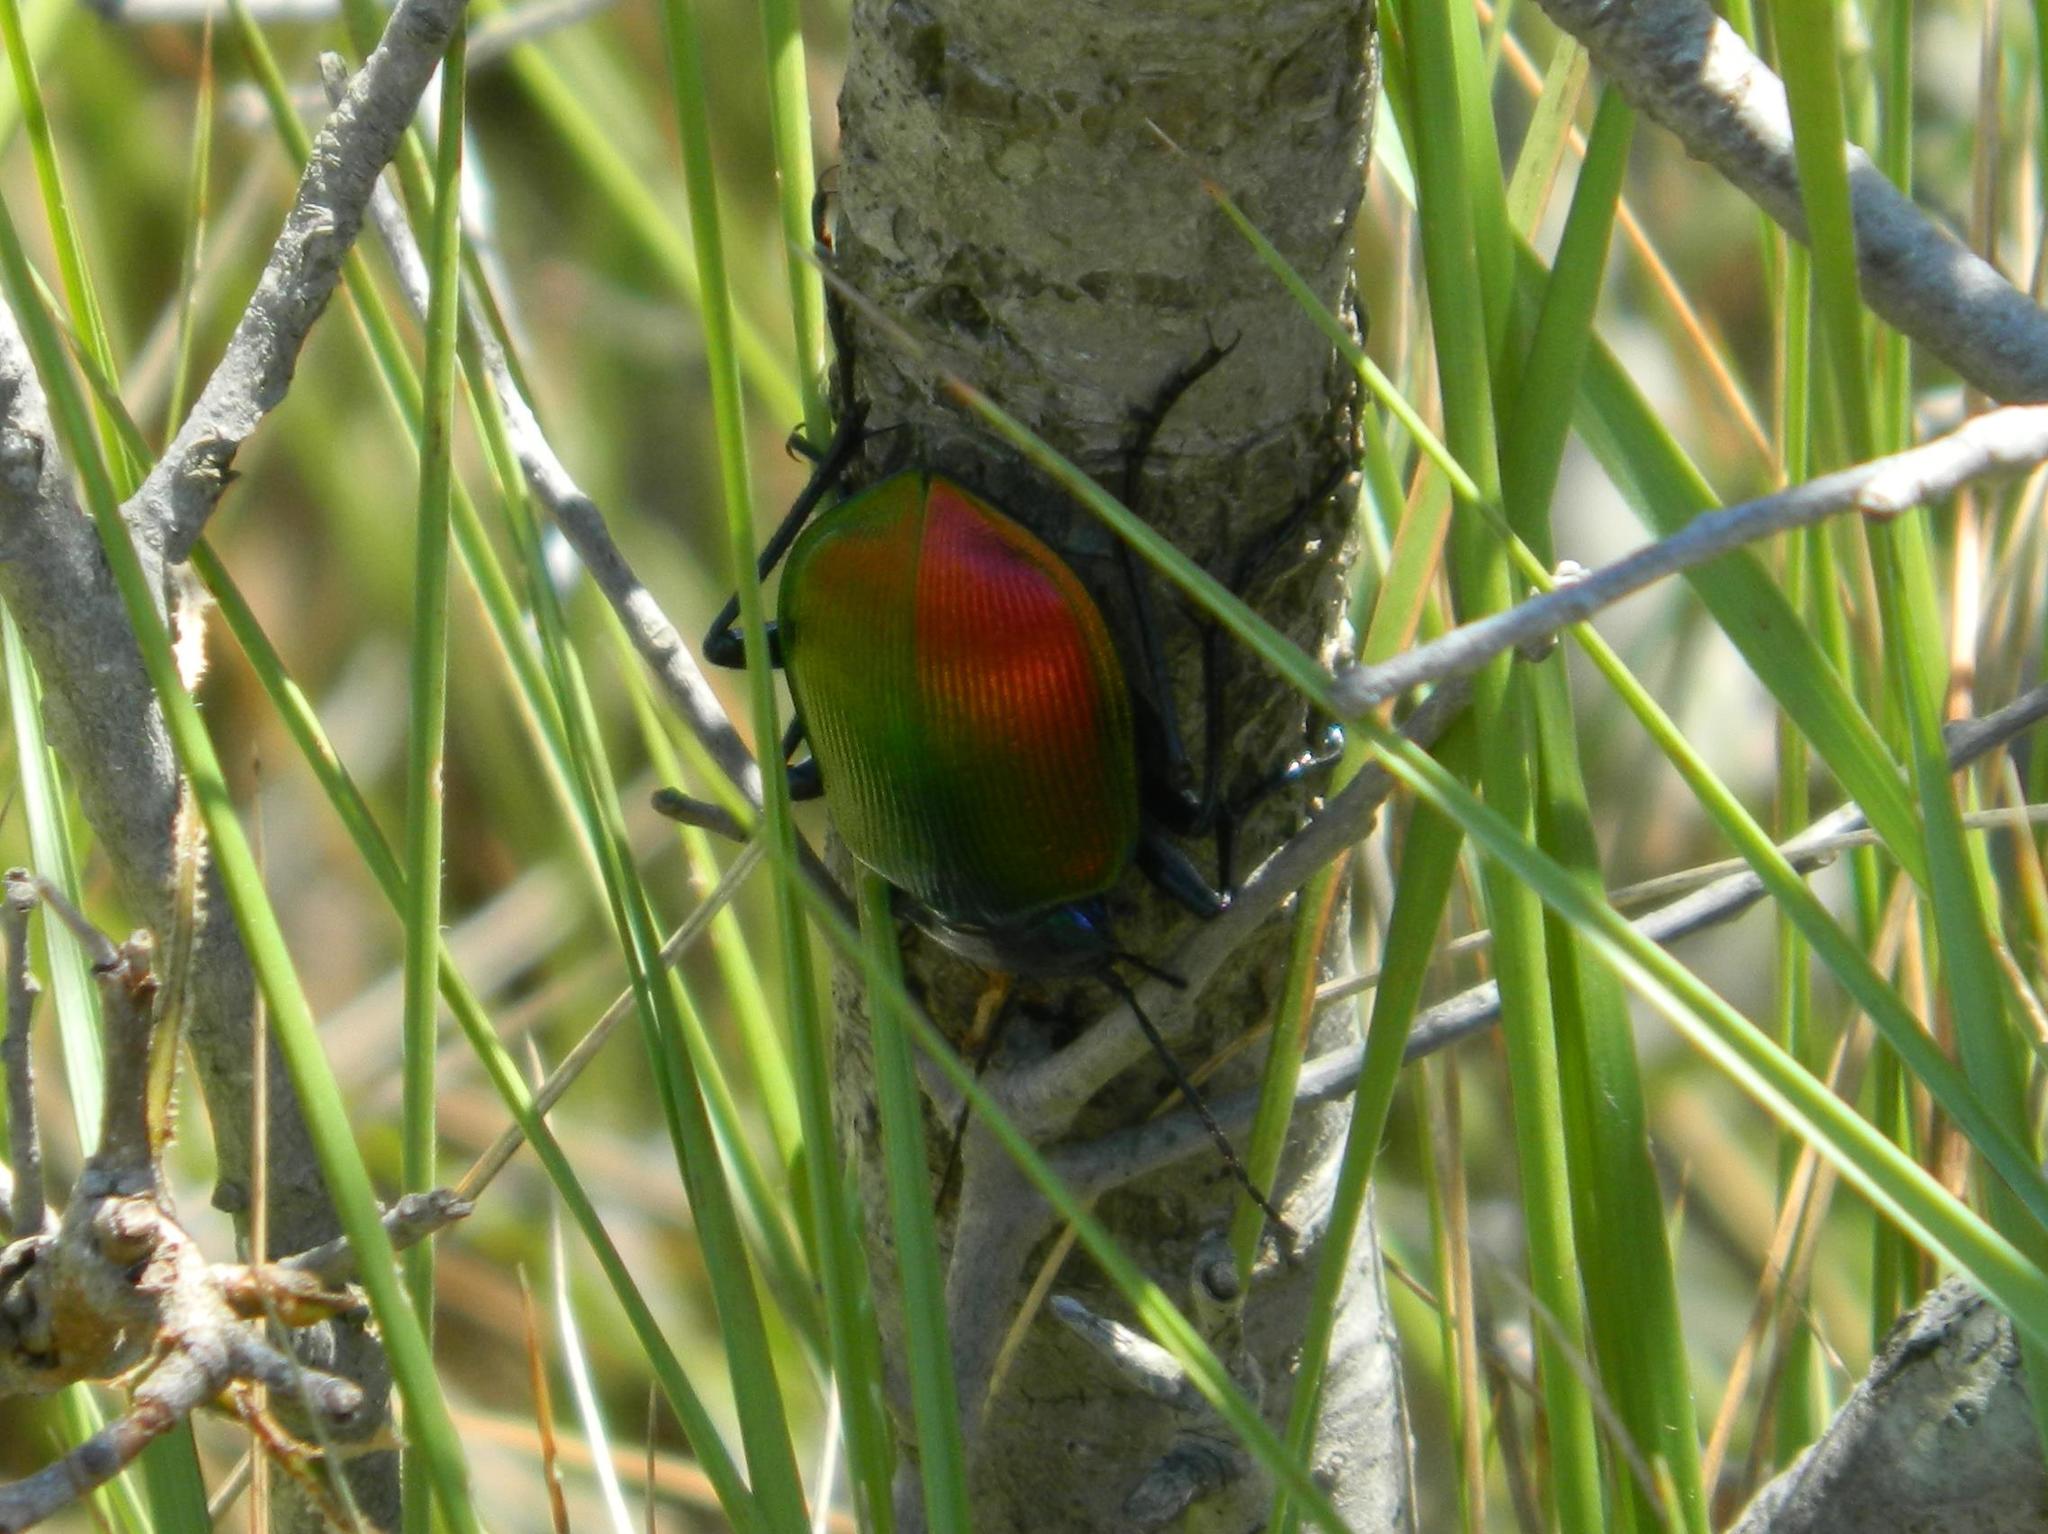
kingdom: Animalia
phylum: Arthropoda
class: Insecta
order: Coleoptera
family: Carabidae
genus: Calosoma
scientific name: Calosoma sycophanta
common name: Forest caterpillar hunter
